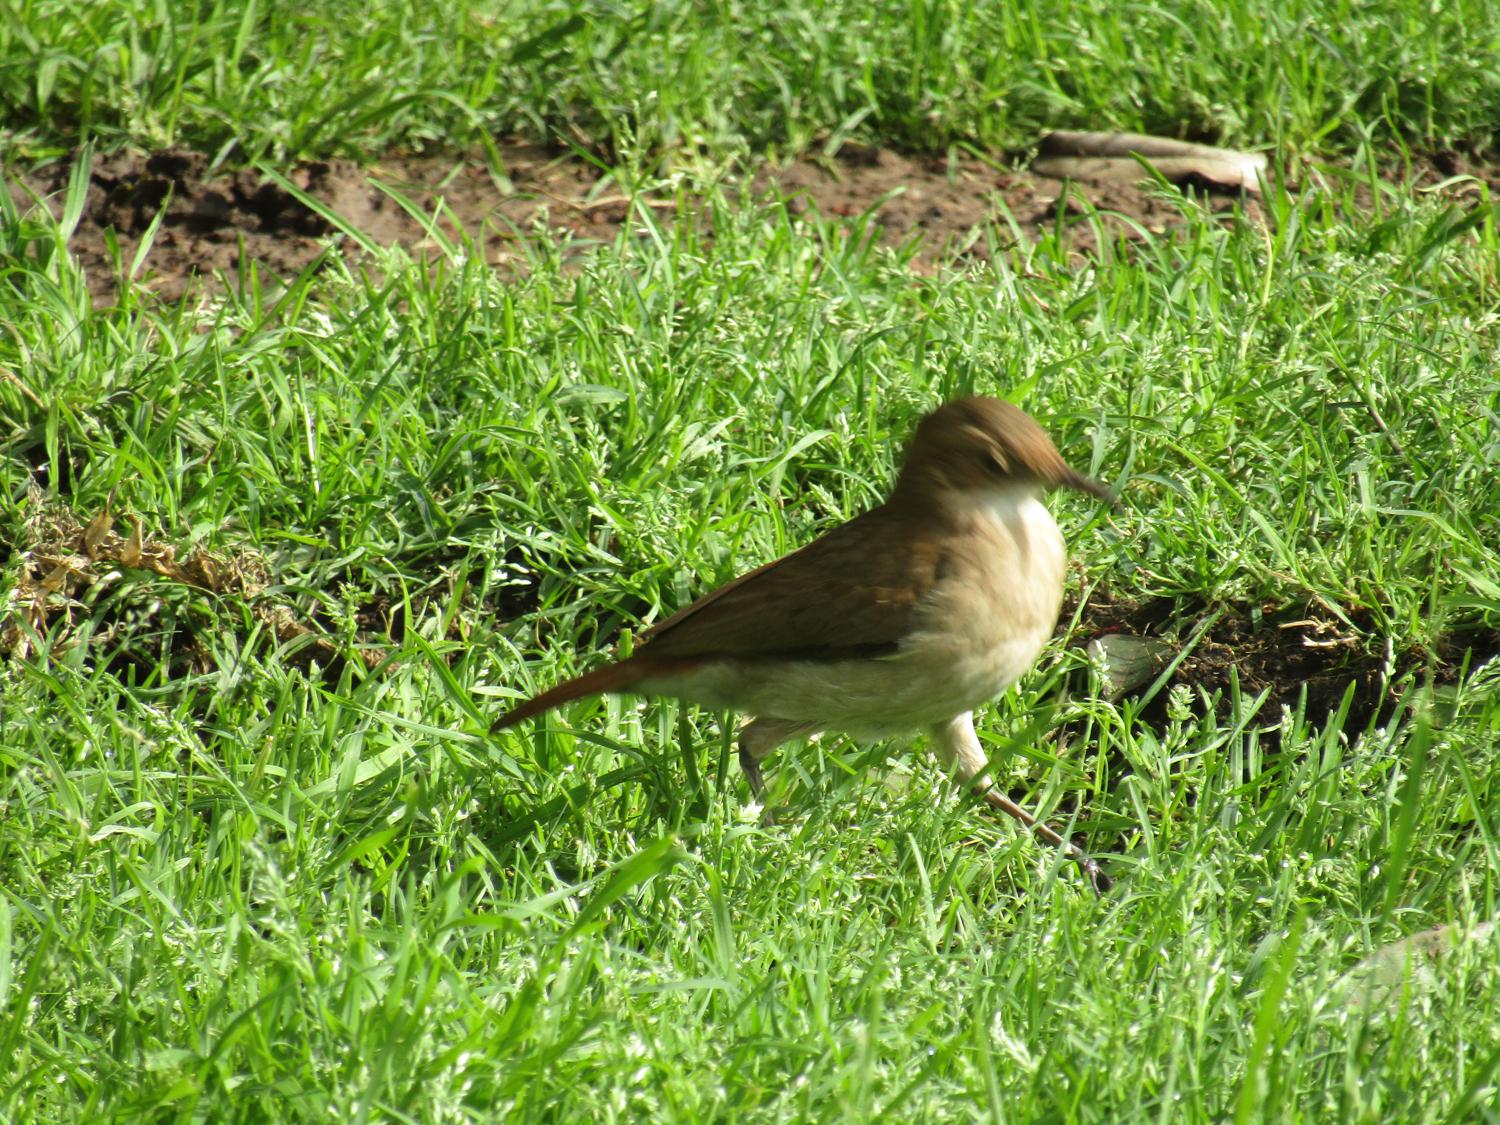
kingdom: Animalia
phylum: Chordata
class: Aves
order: Passeriformes
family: Furnariidae
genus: Furnarius
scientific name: Furnarius rufus
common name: Rufous hornero
